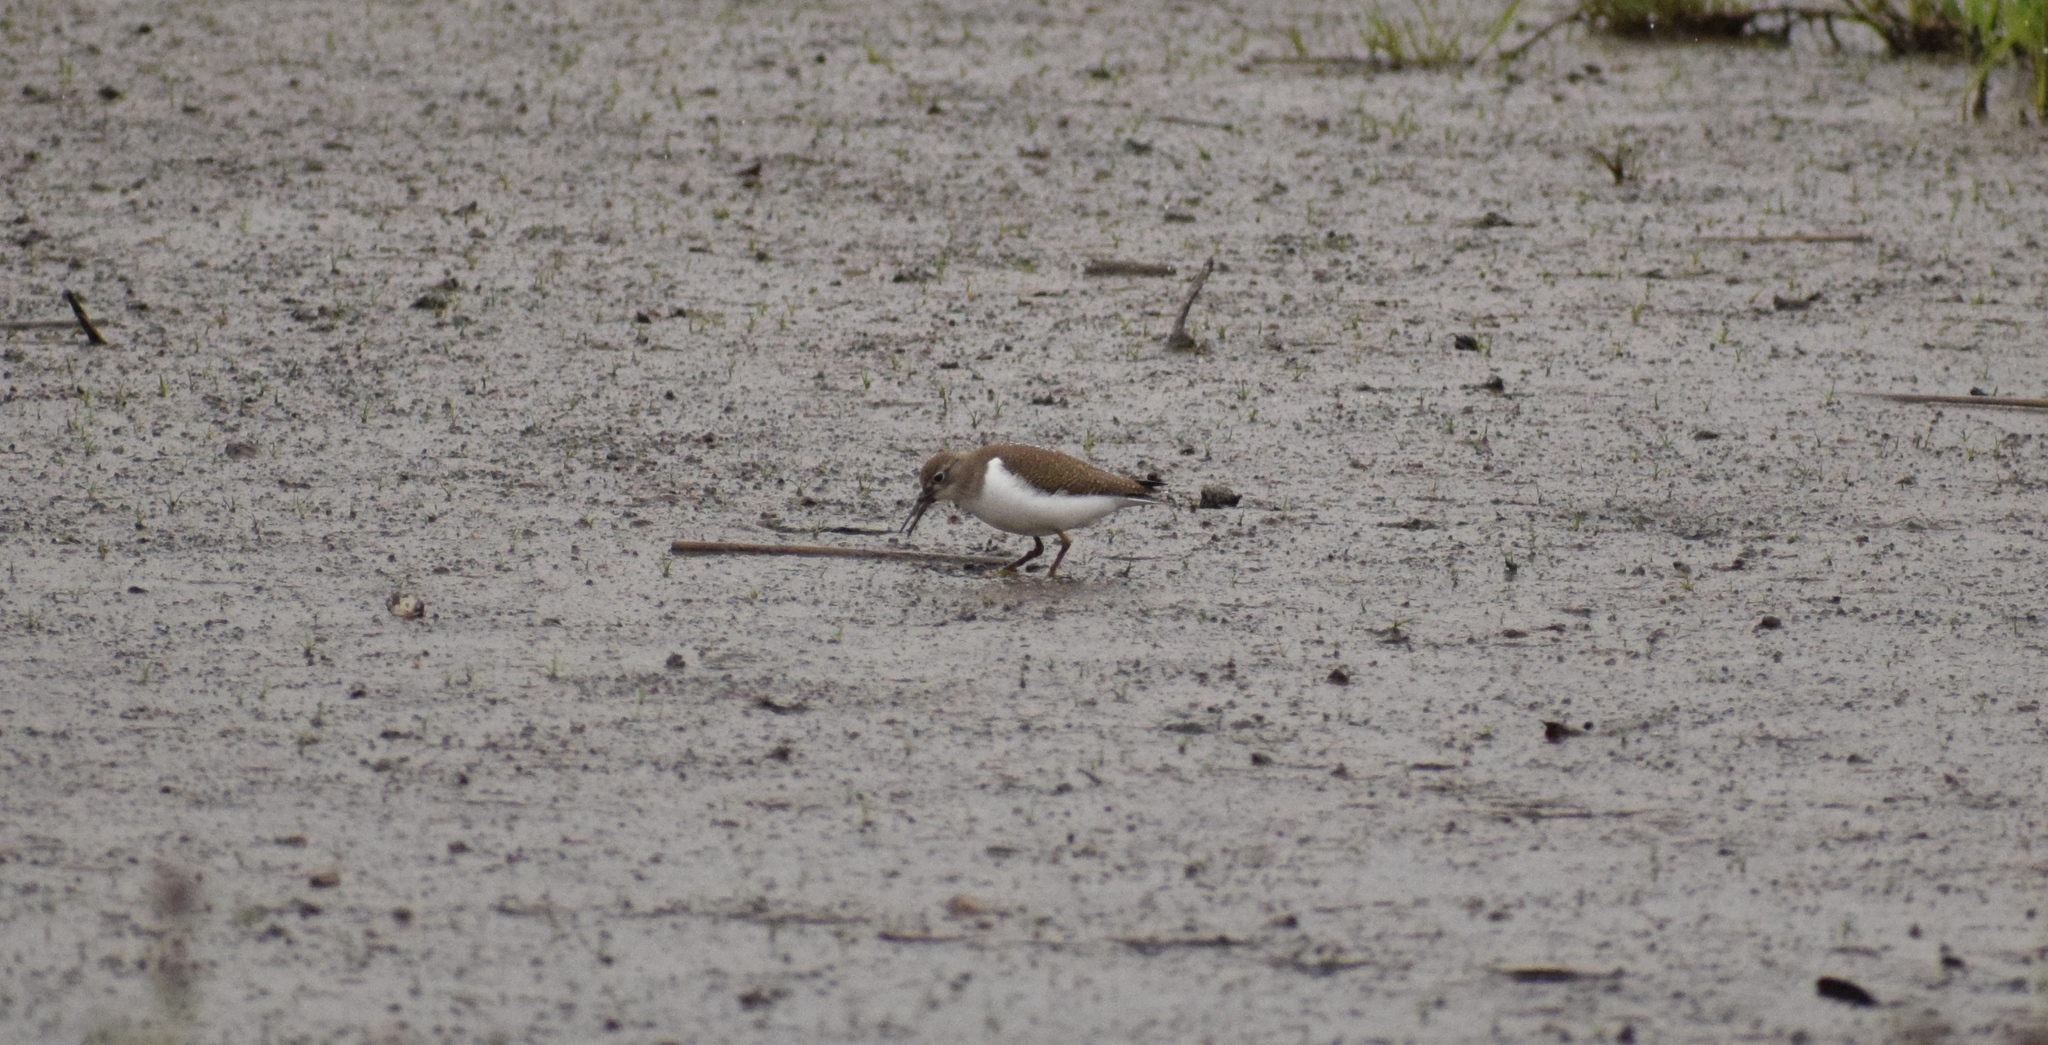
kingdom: Animalia
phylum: Chordata
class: Aves
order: Charadriiformes
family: Scolopacidae
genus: Actitis
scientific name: Actitis hypoleucos
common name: Common sandpiper
